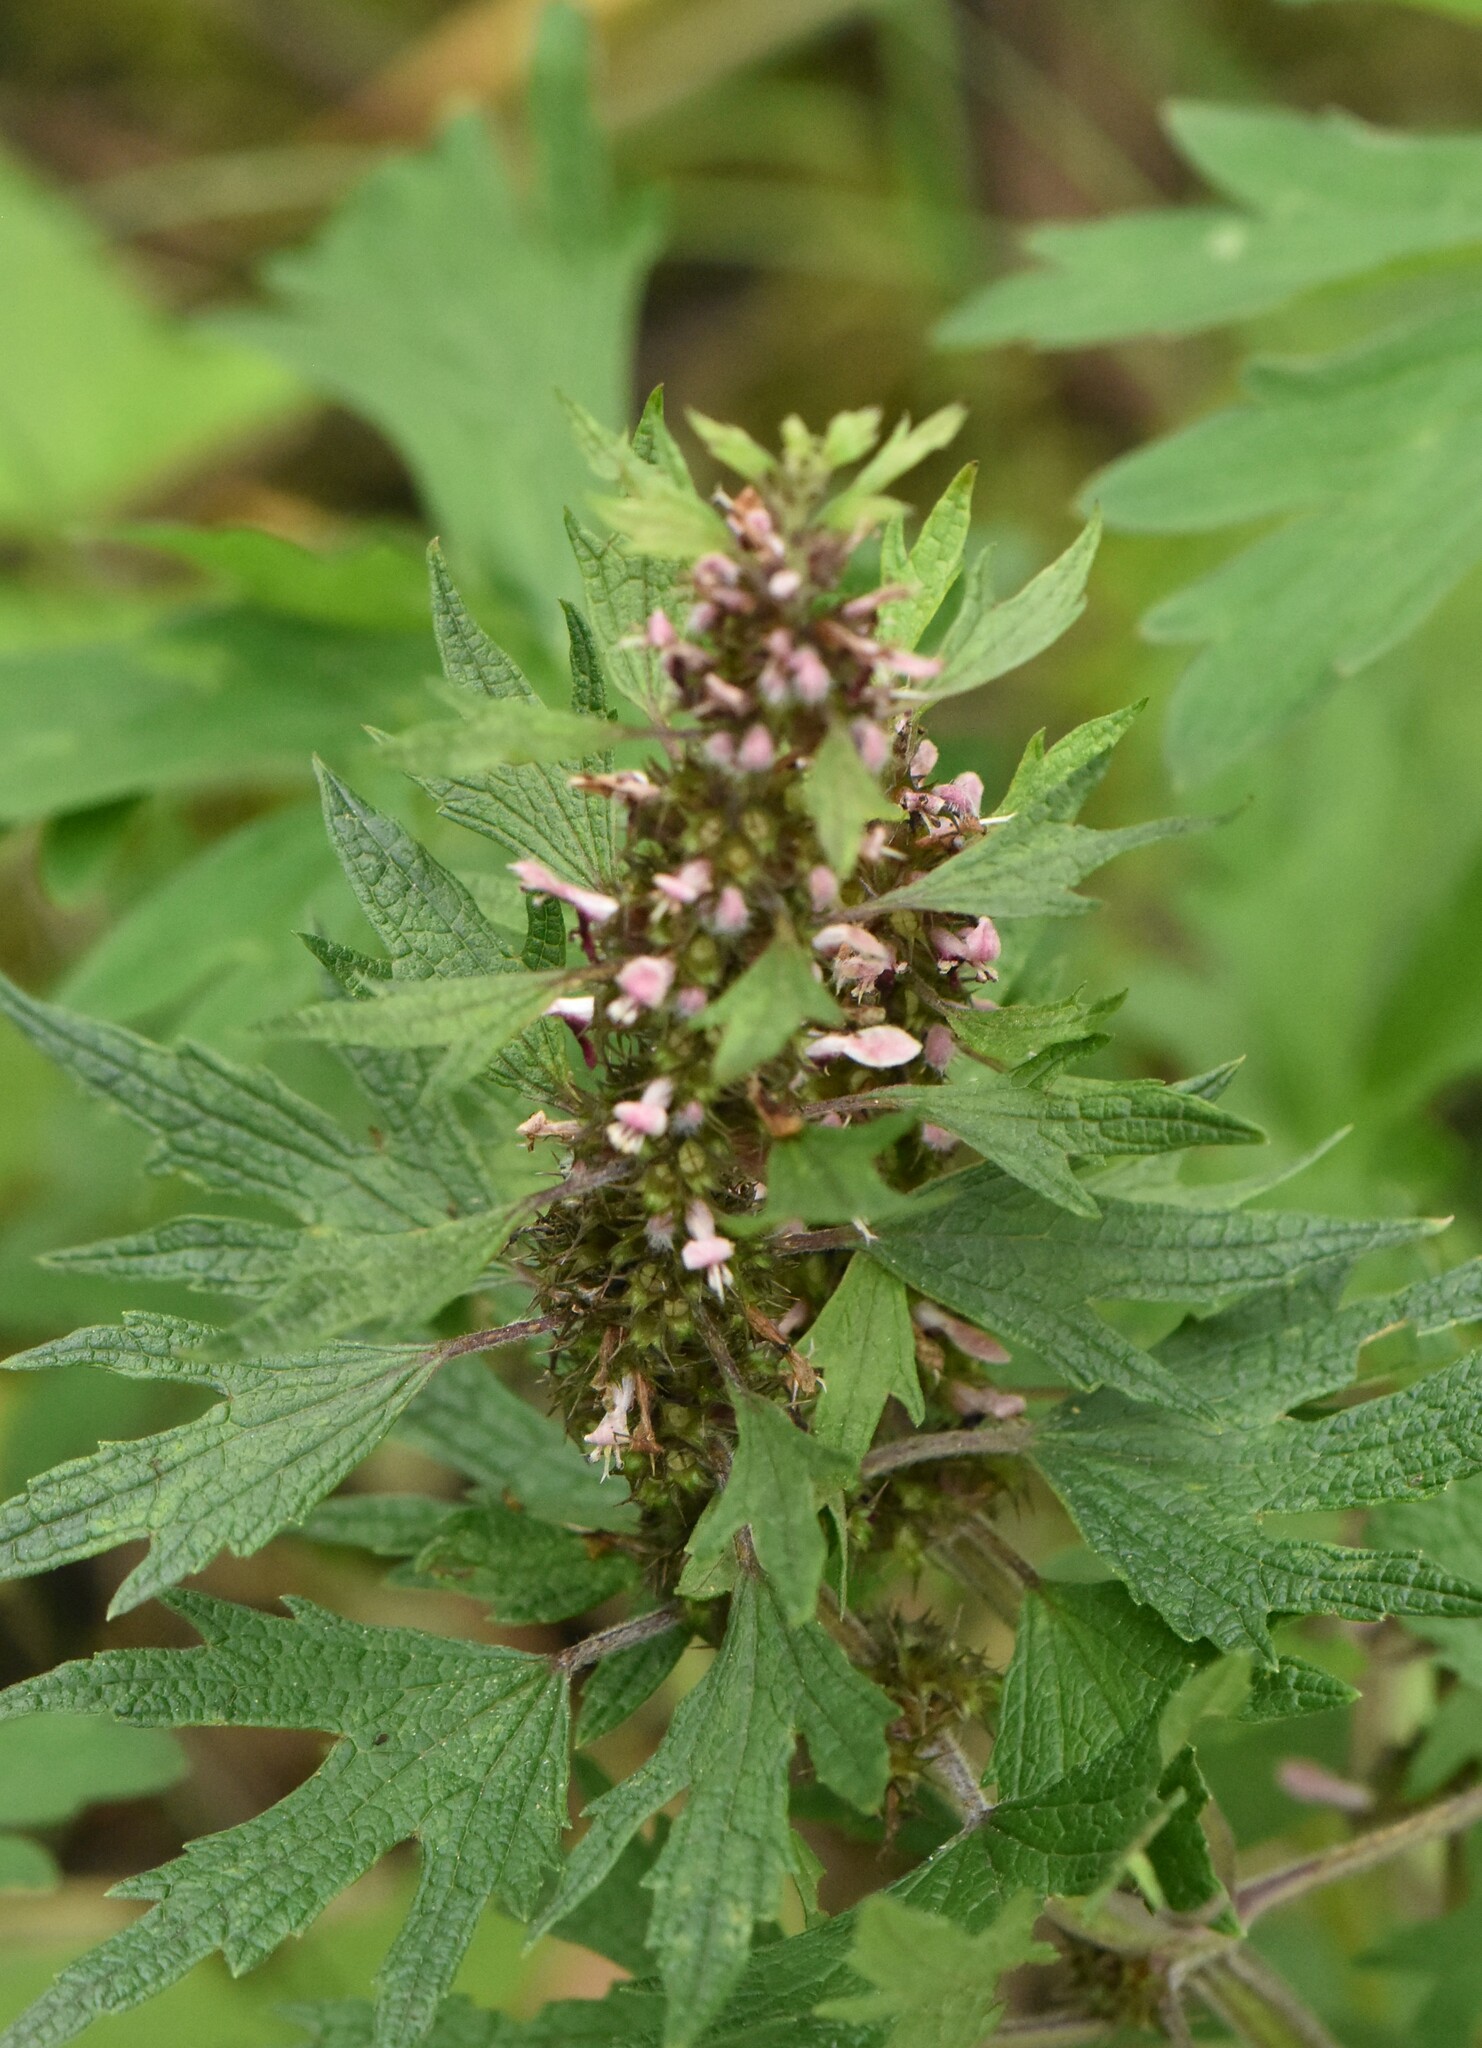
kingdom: Plantae
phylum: Tracheophyta
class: Magnoliopsida
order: Lamiales
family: Lamiaceae
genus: Leonurus
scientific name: Leonurus quinquelobatus
